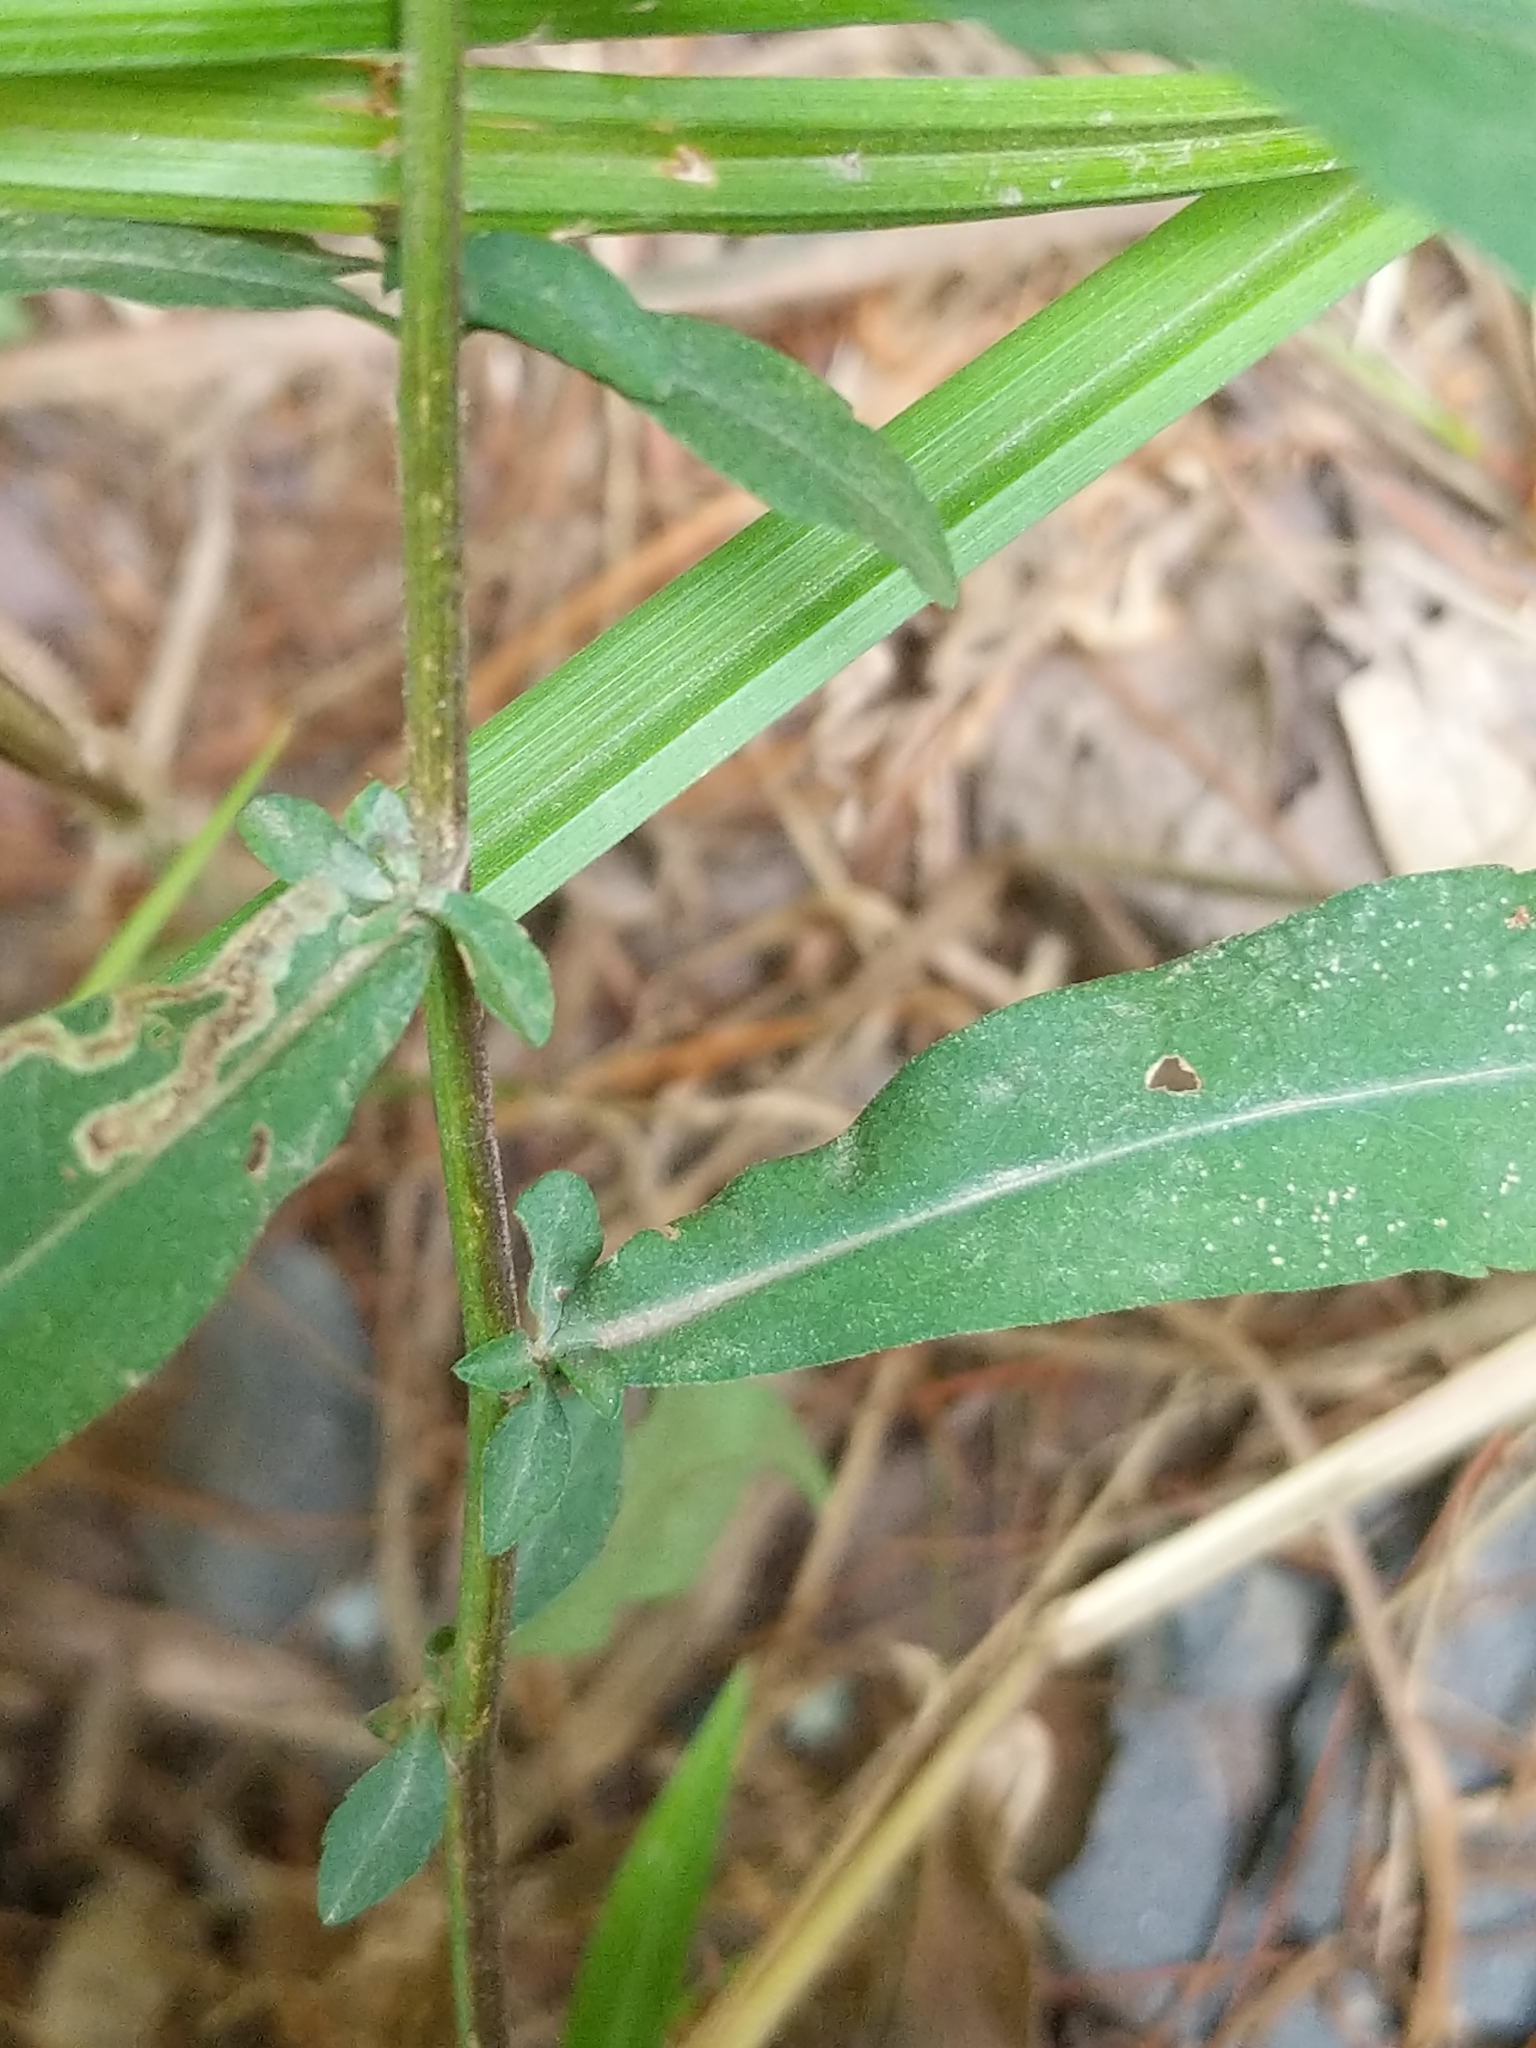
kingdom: Plantae
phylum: Tracheophyta
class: Magnoliopsida
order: Asterales
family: Asteraceae
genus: Symphyotrichum
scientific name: Symphyotrichum lateriflorum
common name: Calico aster
